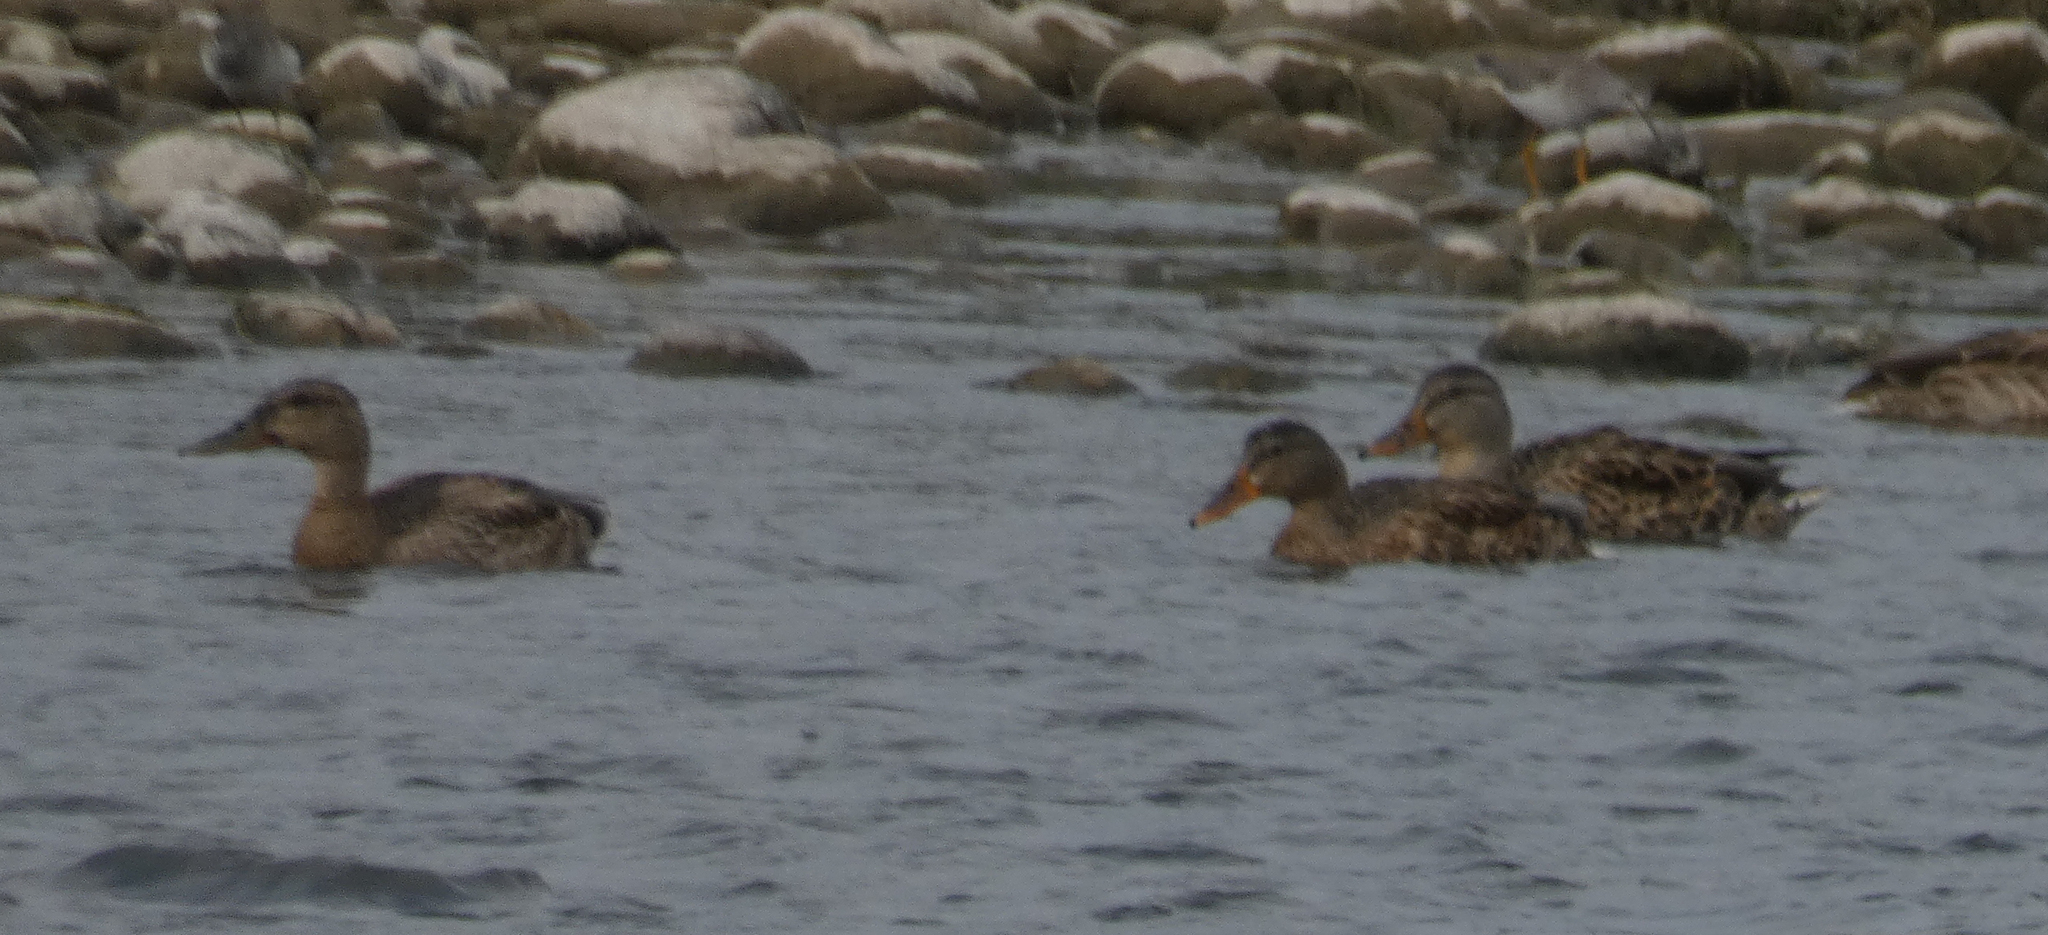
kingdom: Animalia
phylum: Chordata
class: Aves
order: Anseriformes
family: Anatidae
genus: Anas
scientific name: Anas platyrhynchos
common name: Mallard
